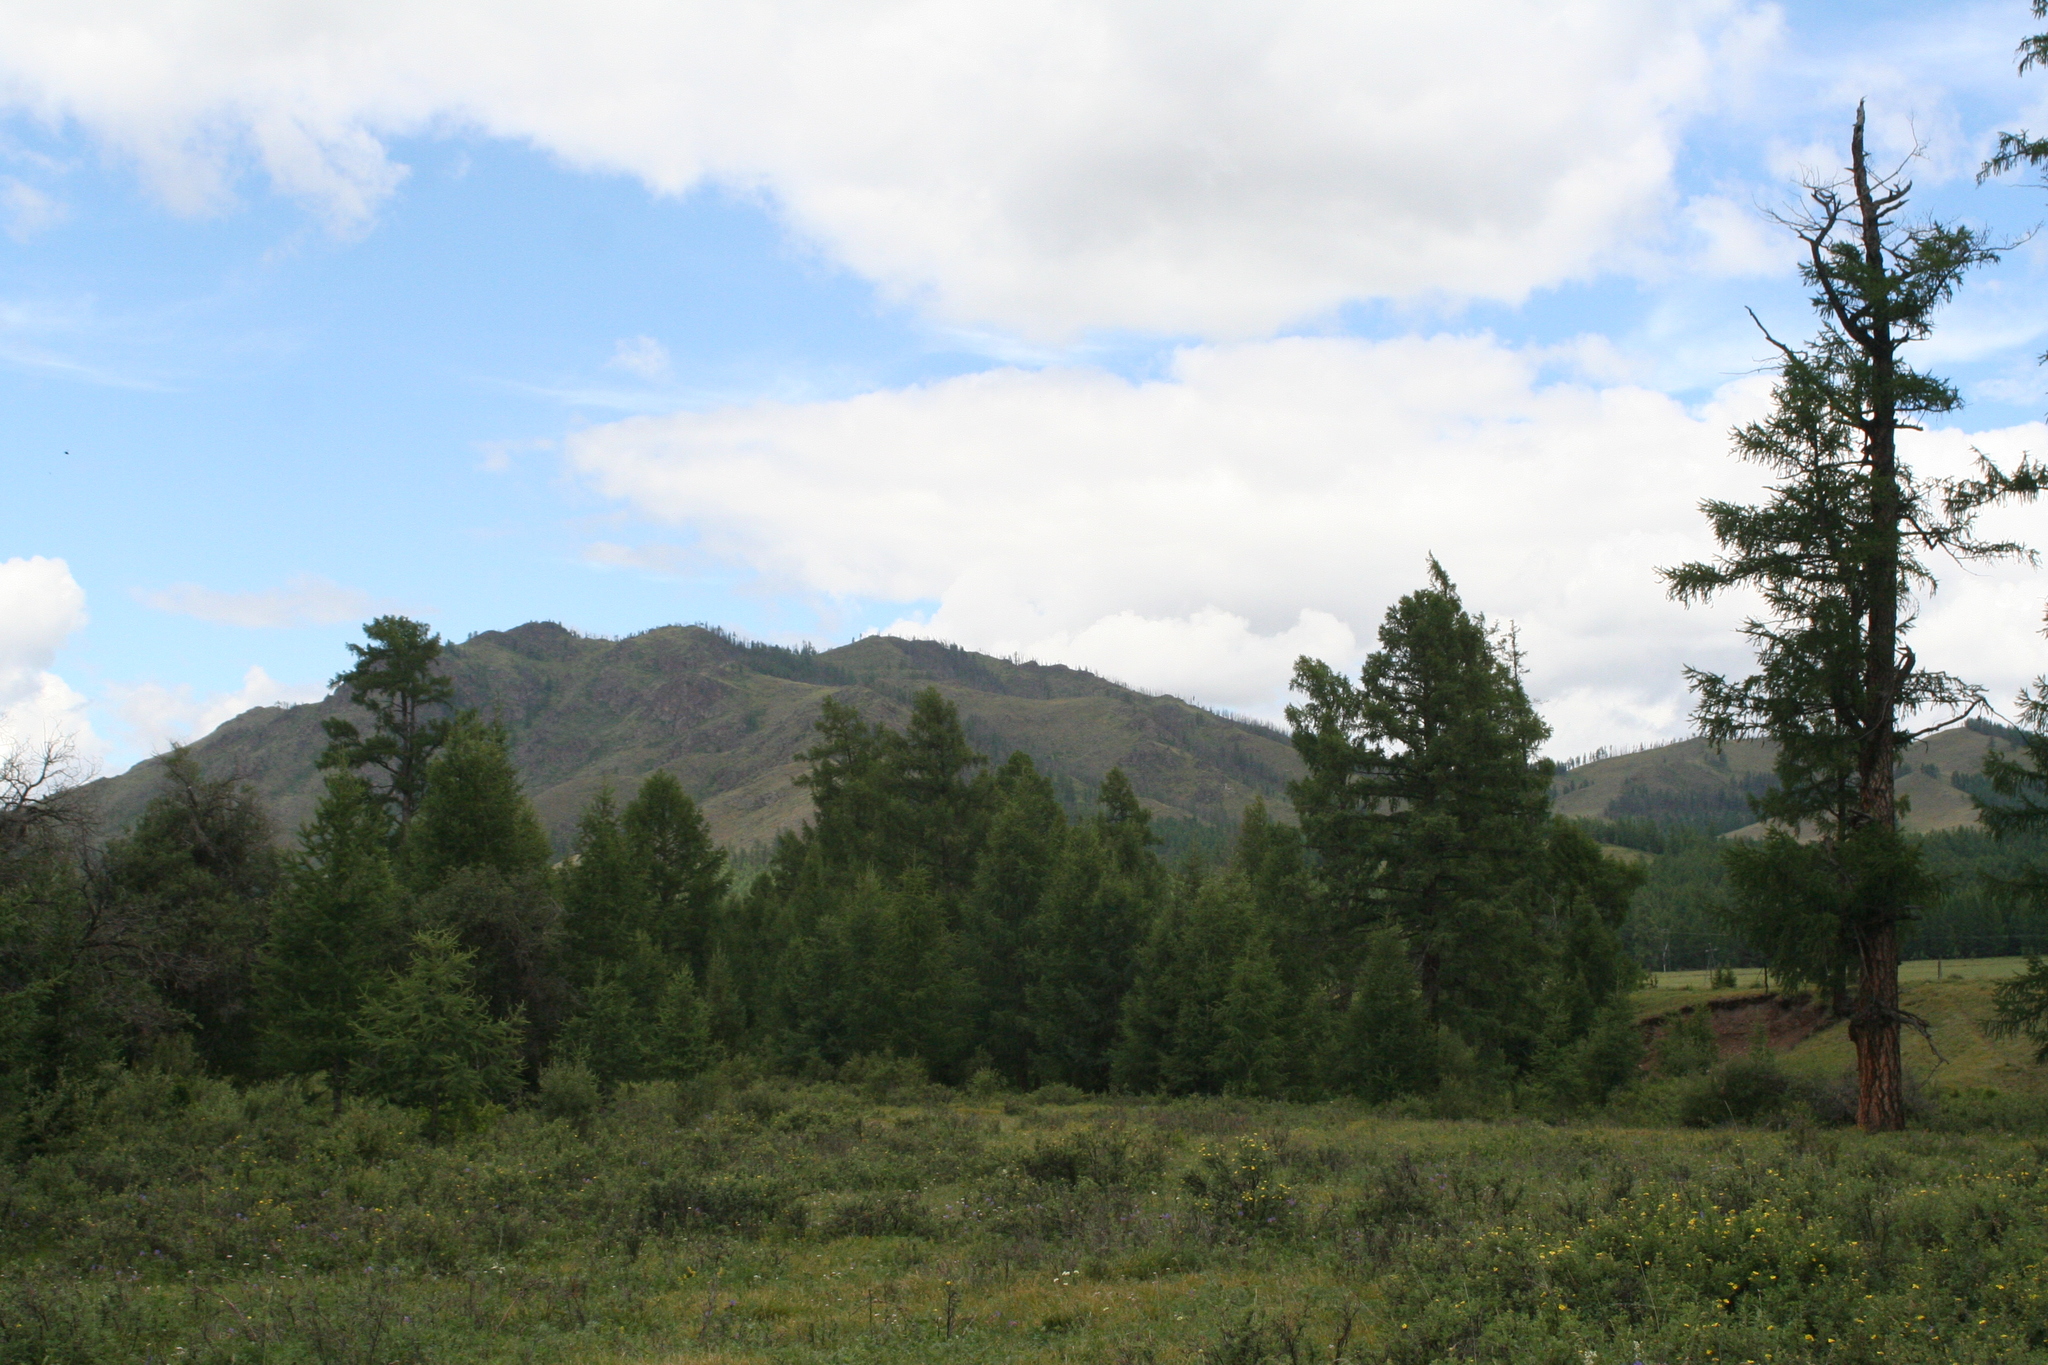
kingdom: Plantae
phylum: Tracheophyta
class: Pinopsida
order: Pinales
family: Pinaceae
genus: Larix
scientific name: Larix sibirica
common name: Siberian larch
